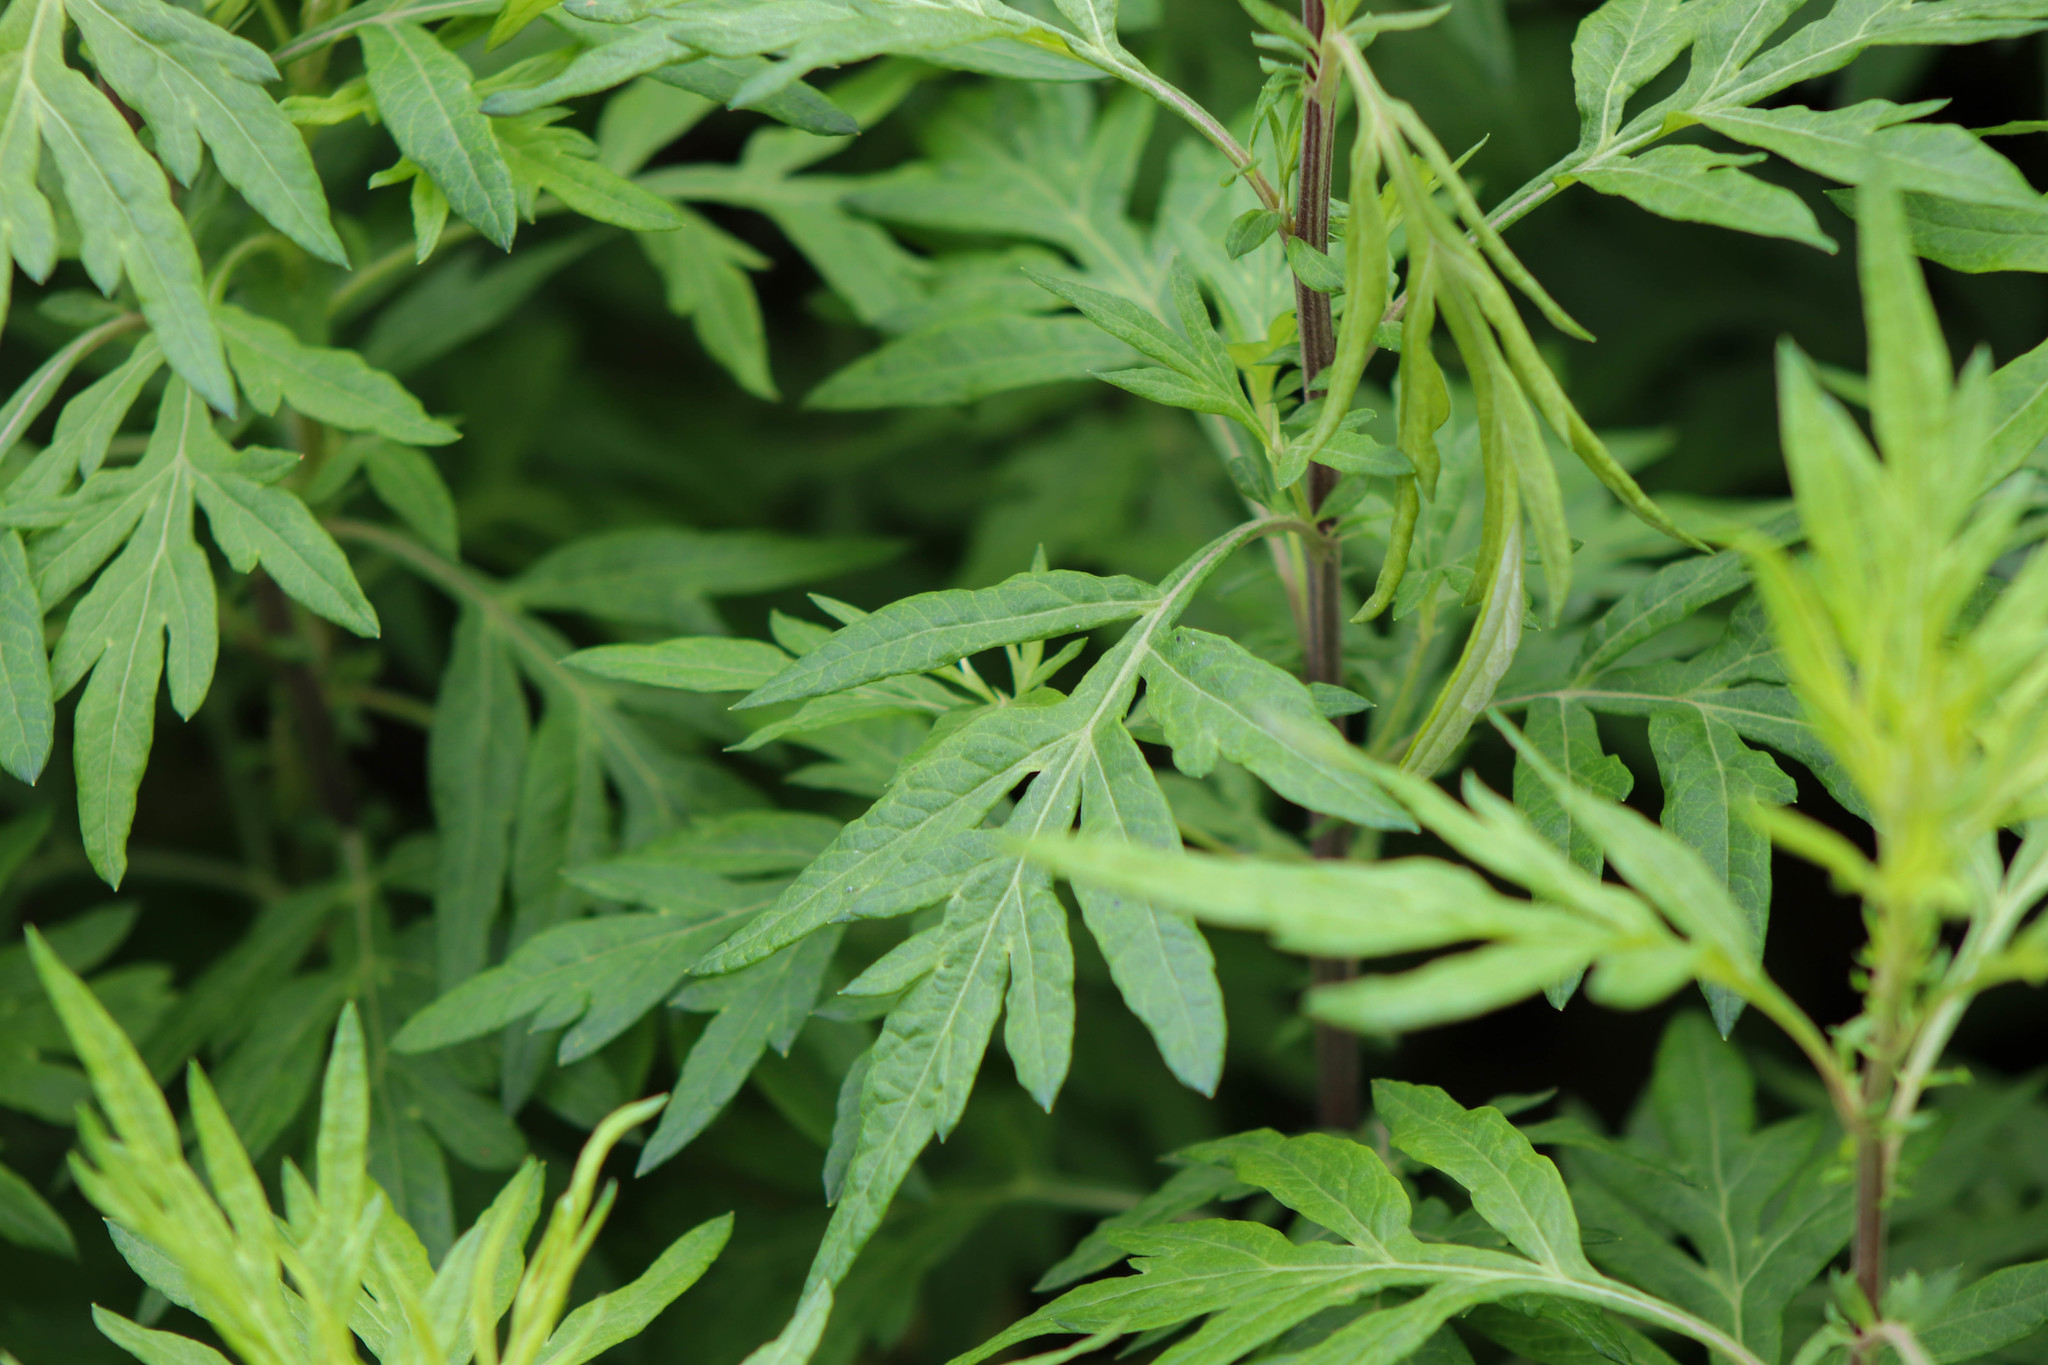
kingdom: Plantae
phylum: Tracheophyta
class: Magnoliopsida
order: Asterales
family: Asteraceae
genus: Ambrosia
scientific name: Ambrosia artemisiifolia
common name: Annual ragweed
